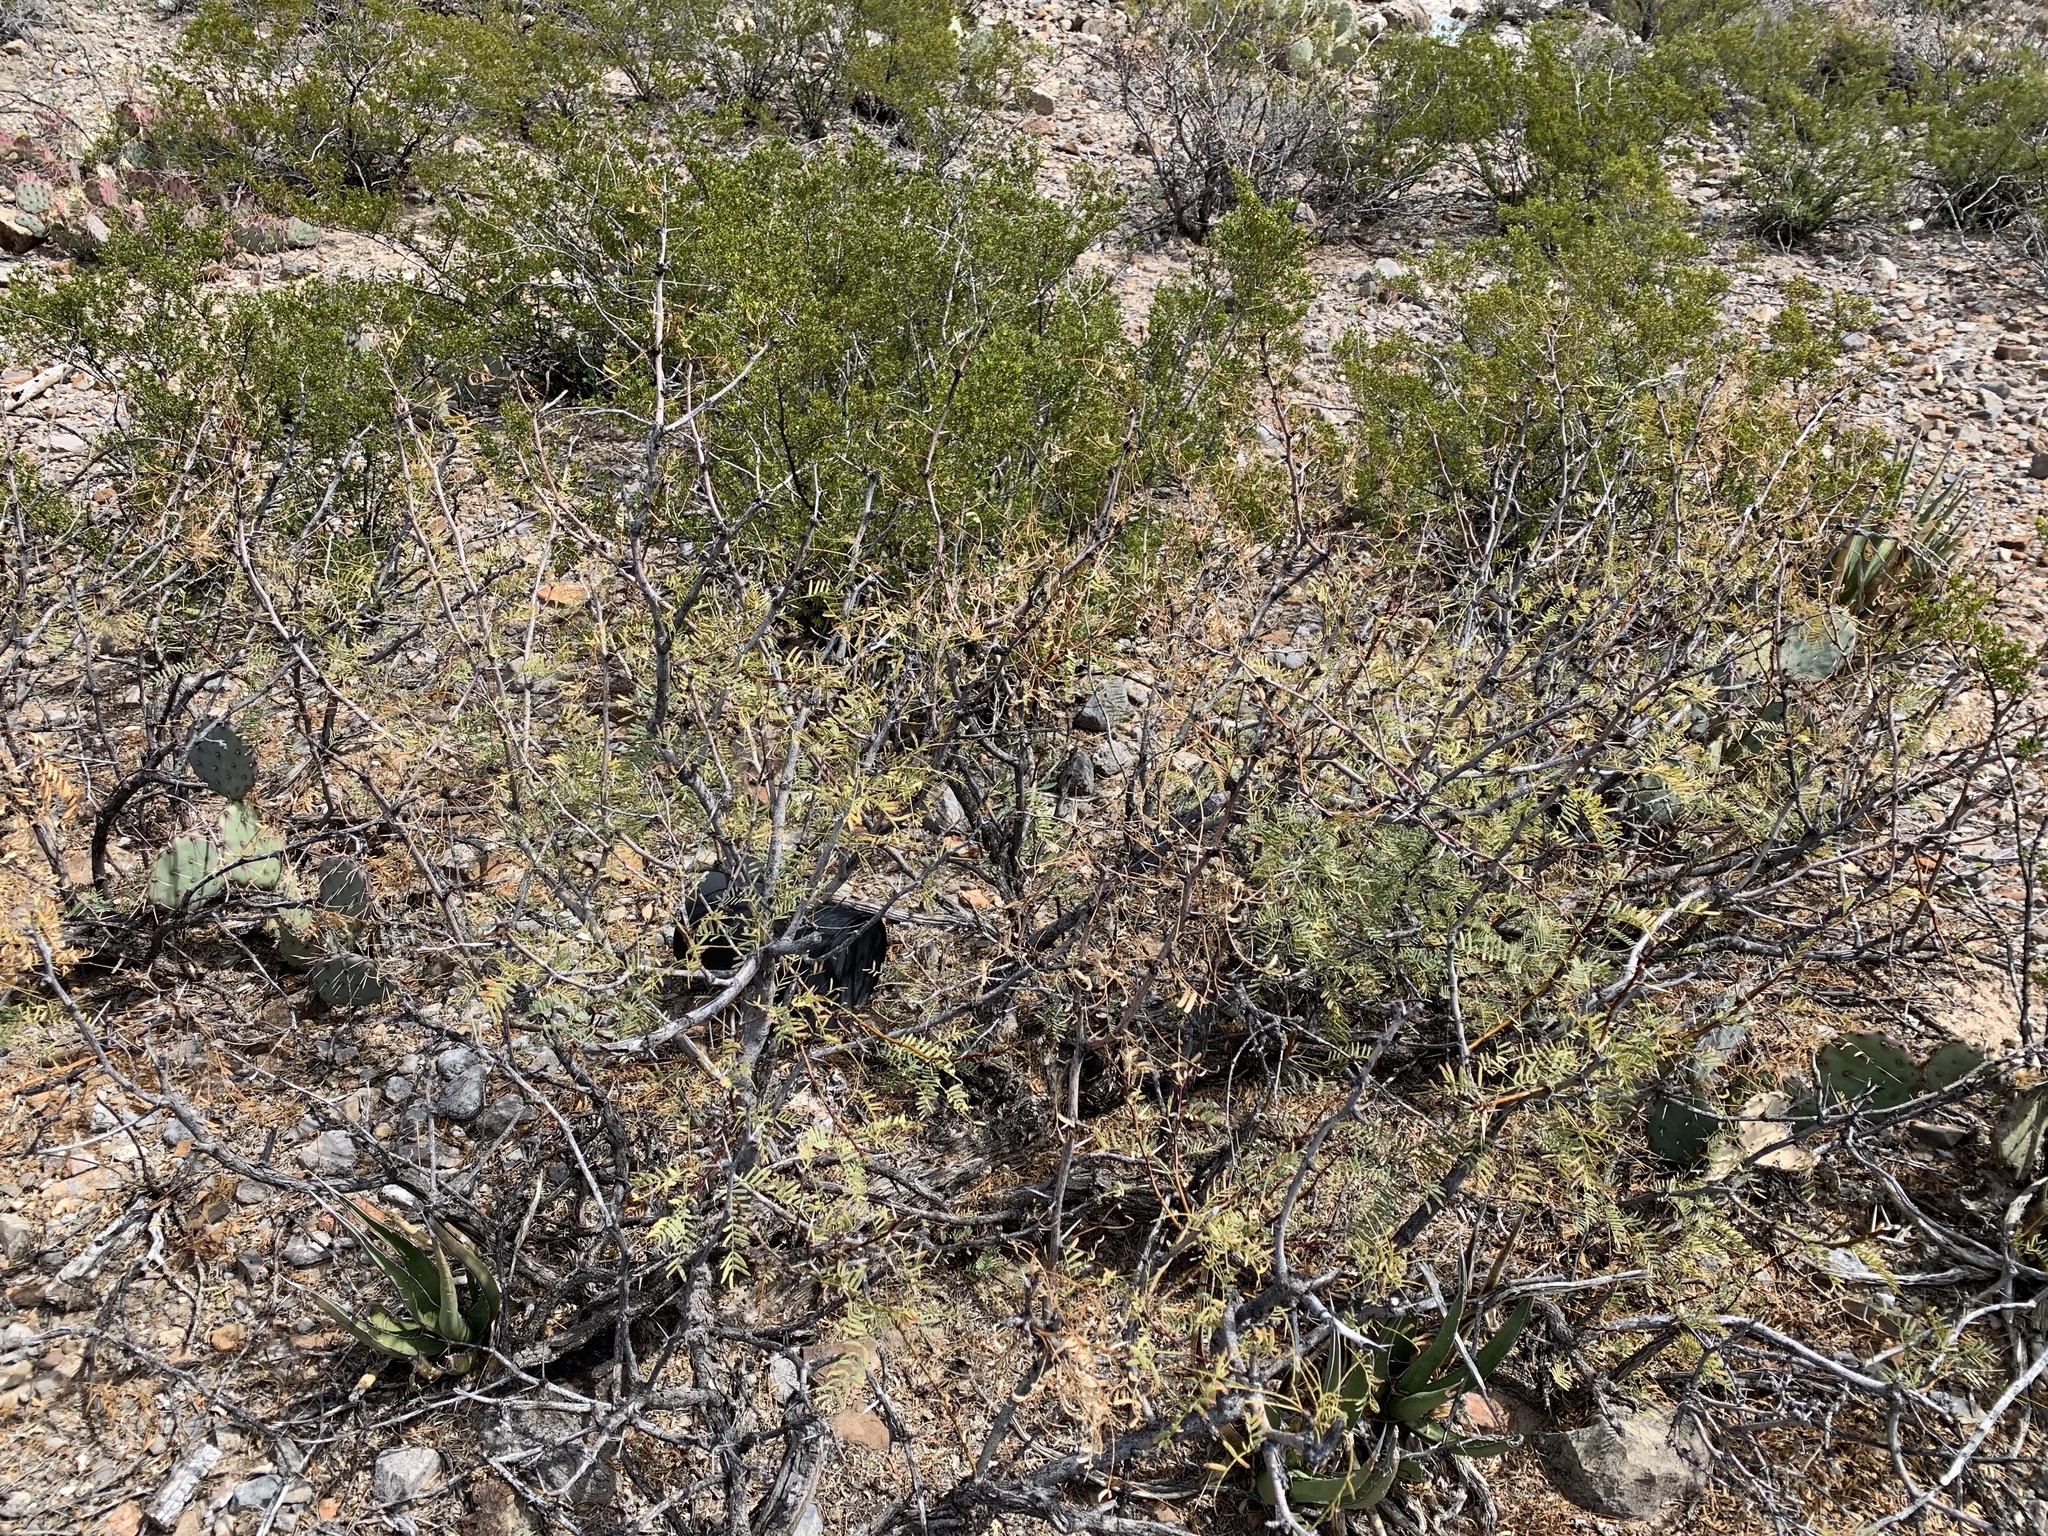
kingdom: Plantae
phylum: Tracheophyta
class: Magnoliopsida
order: Fabales
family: Fabaceae
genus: Prosopis
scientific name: Prosopis glandulosa
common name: Honey mesquite
